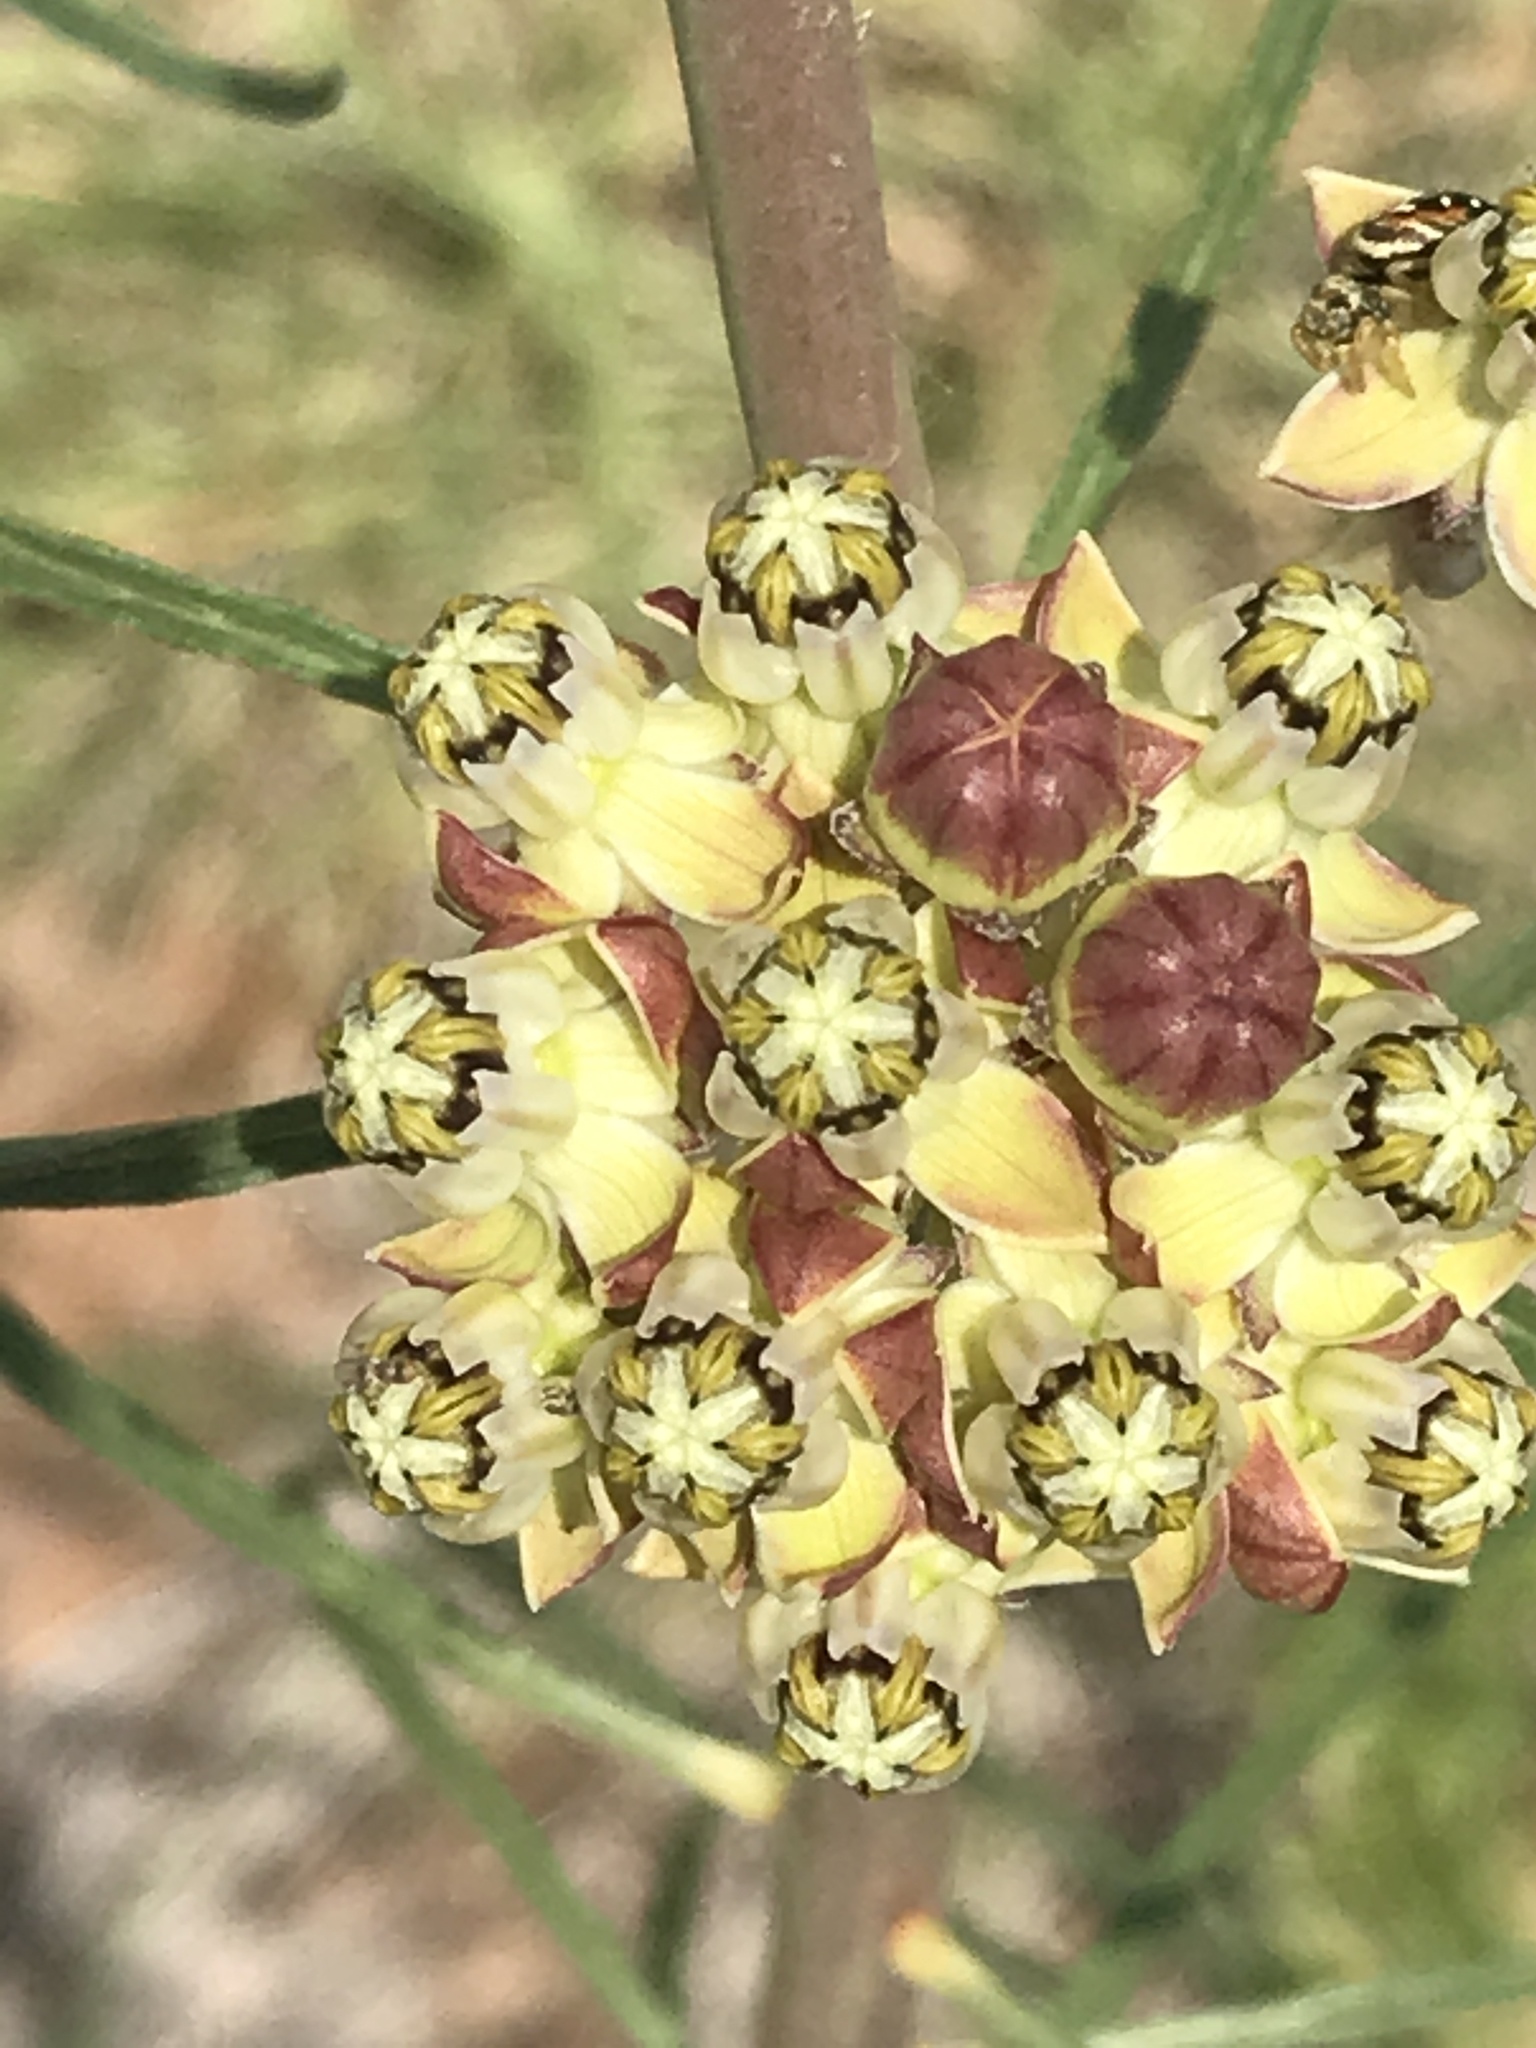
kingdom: Plantae
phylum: Tracheophyta
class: Magnoliopsida
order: Gentianales
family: Apocynaceae
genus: Asclepias
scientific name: Asclepias engelmanniana
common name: Engelmann's milkweed
